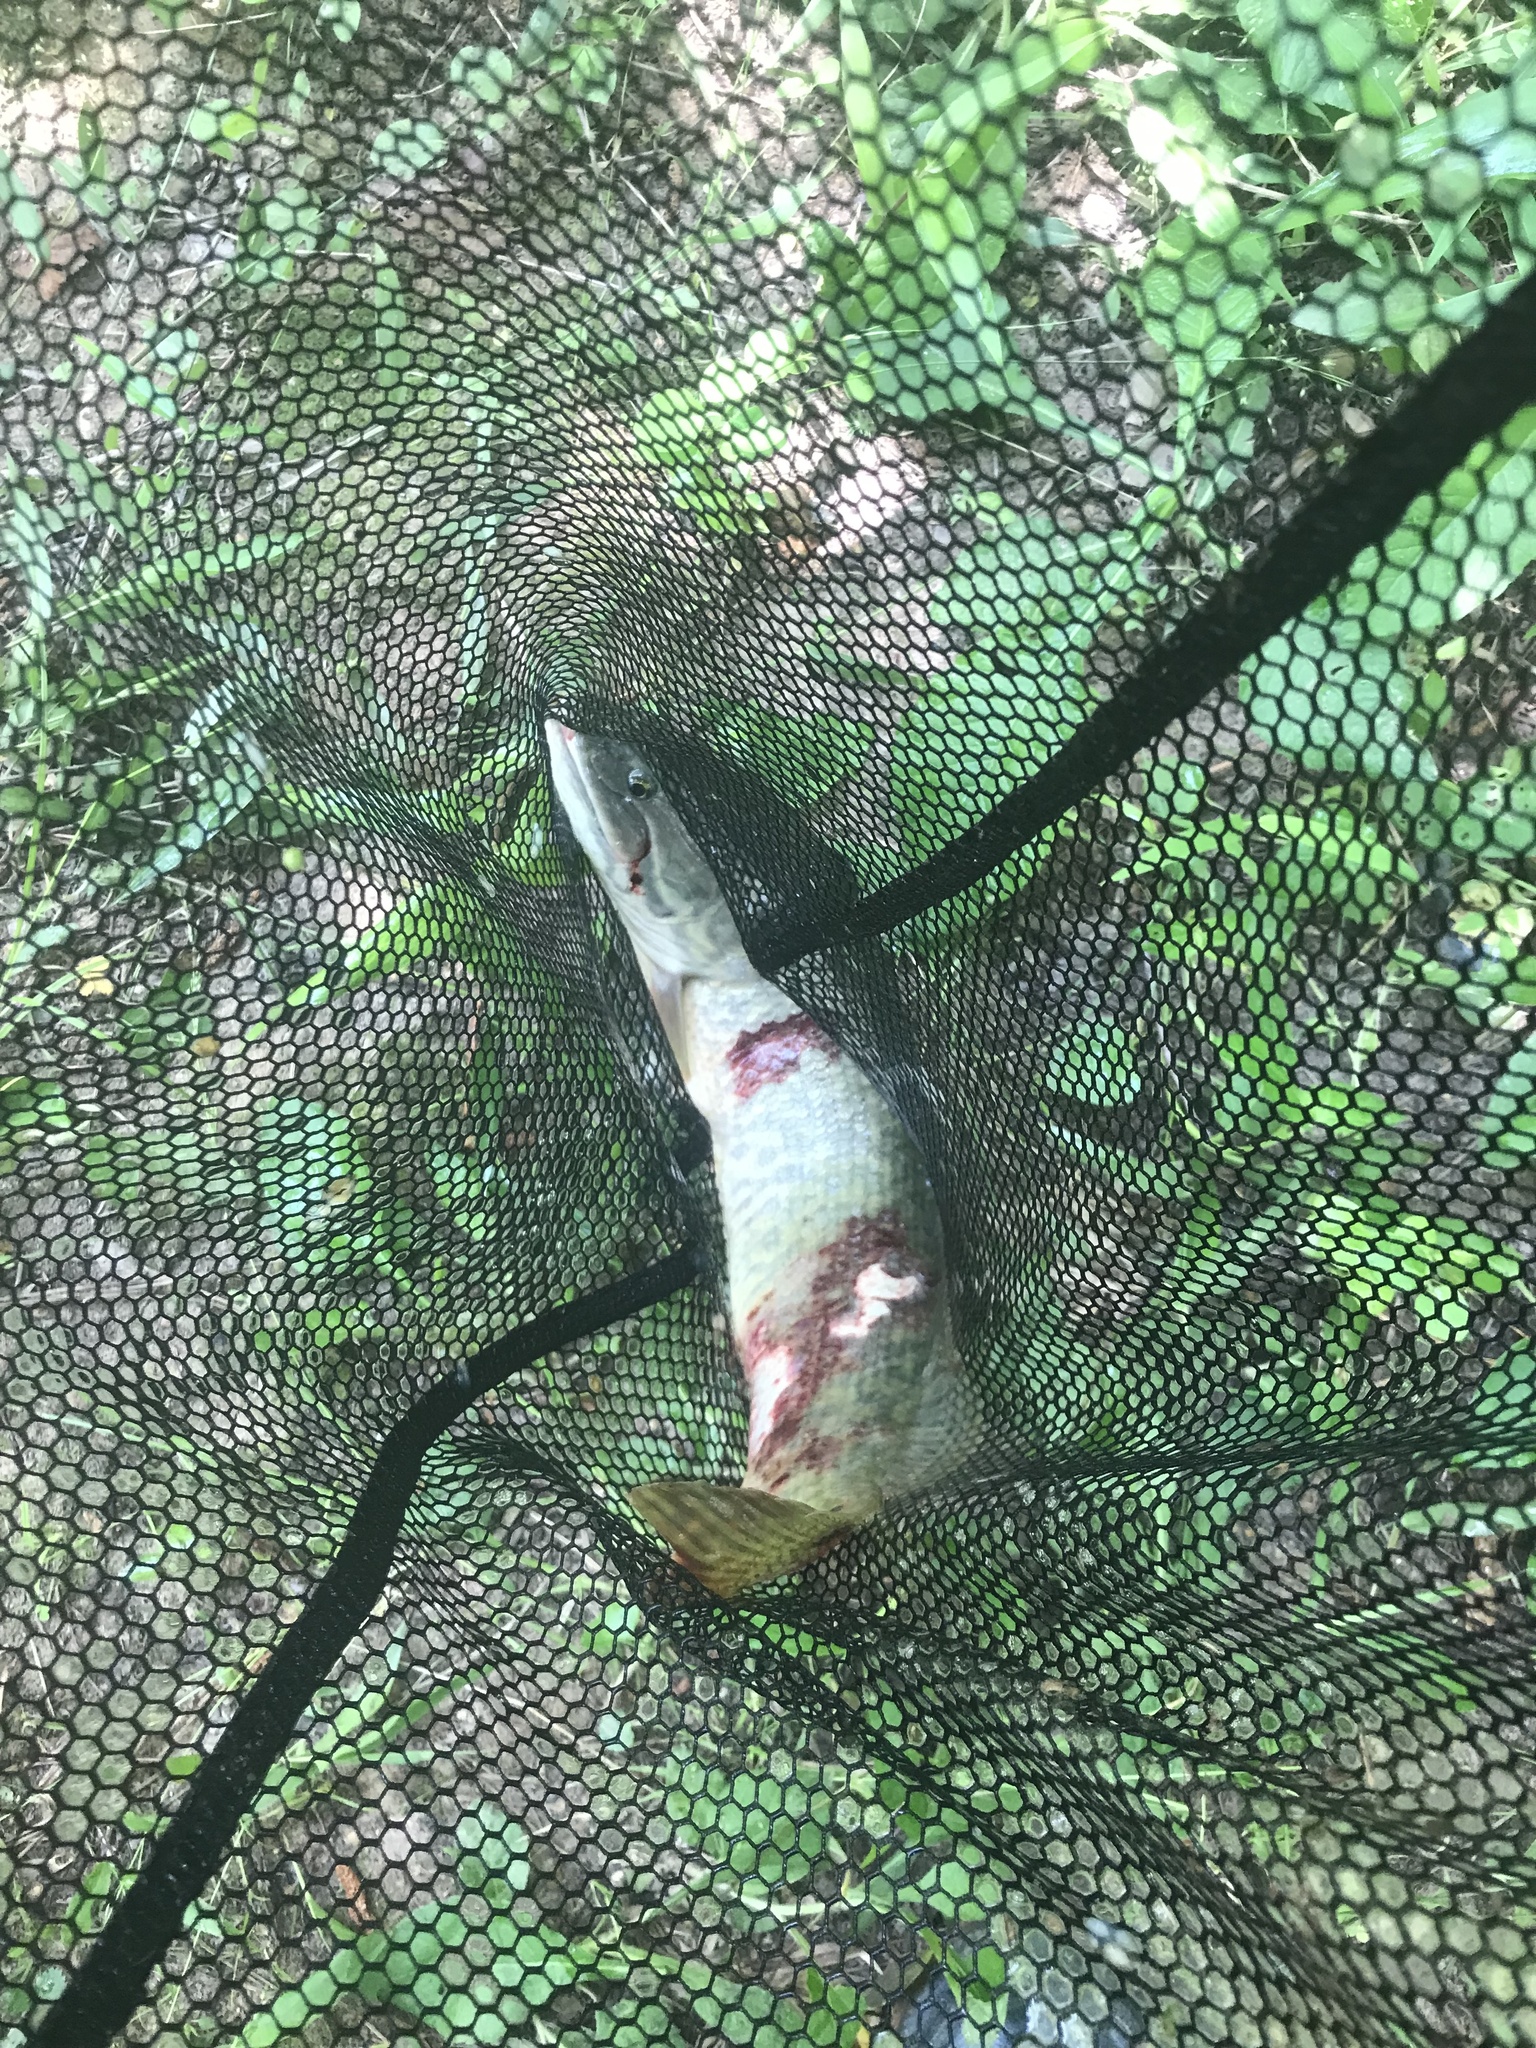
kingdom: Animalia
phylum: Chordata
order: Amiiformes
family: Amiidae
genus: Amia
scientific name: Amia calva
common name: Bowfin
